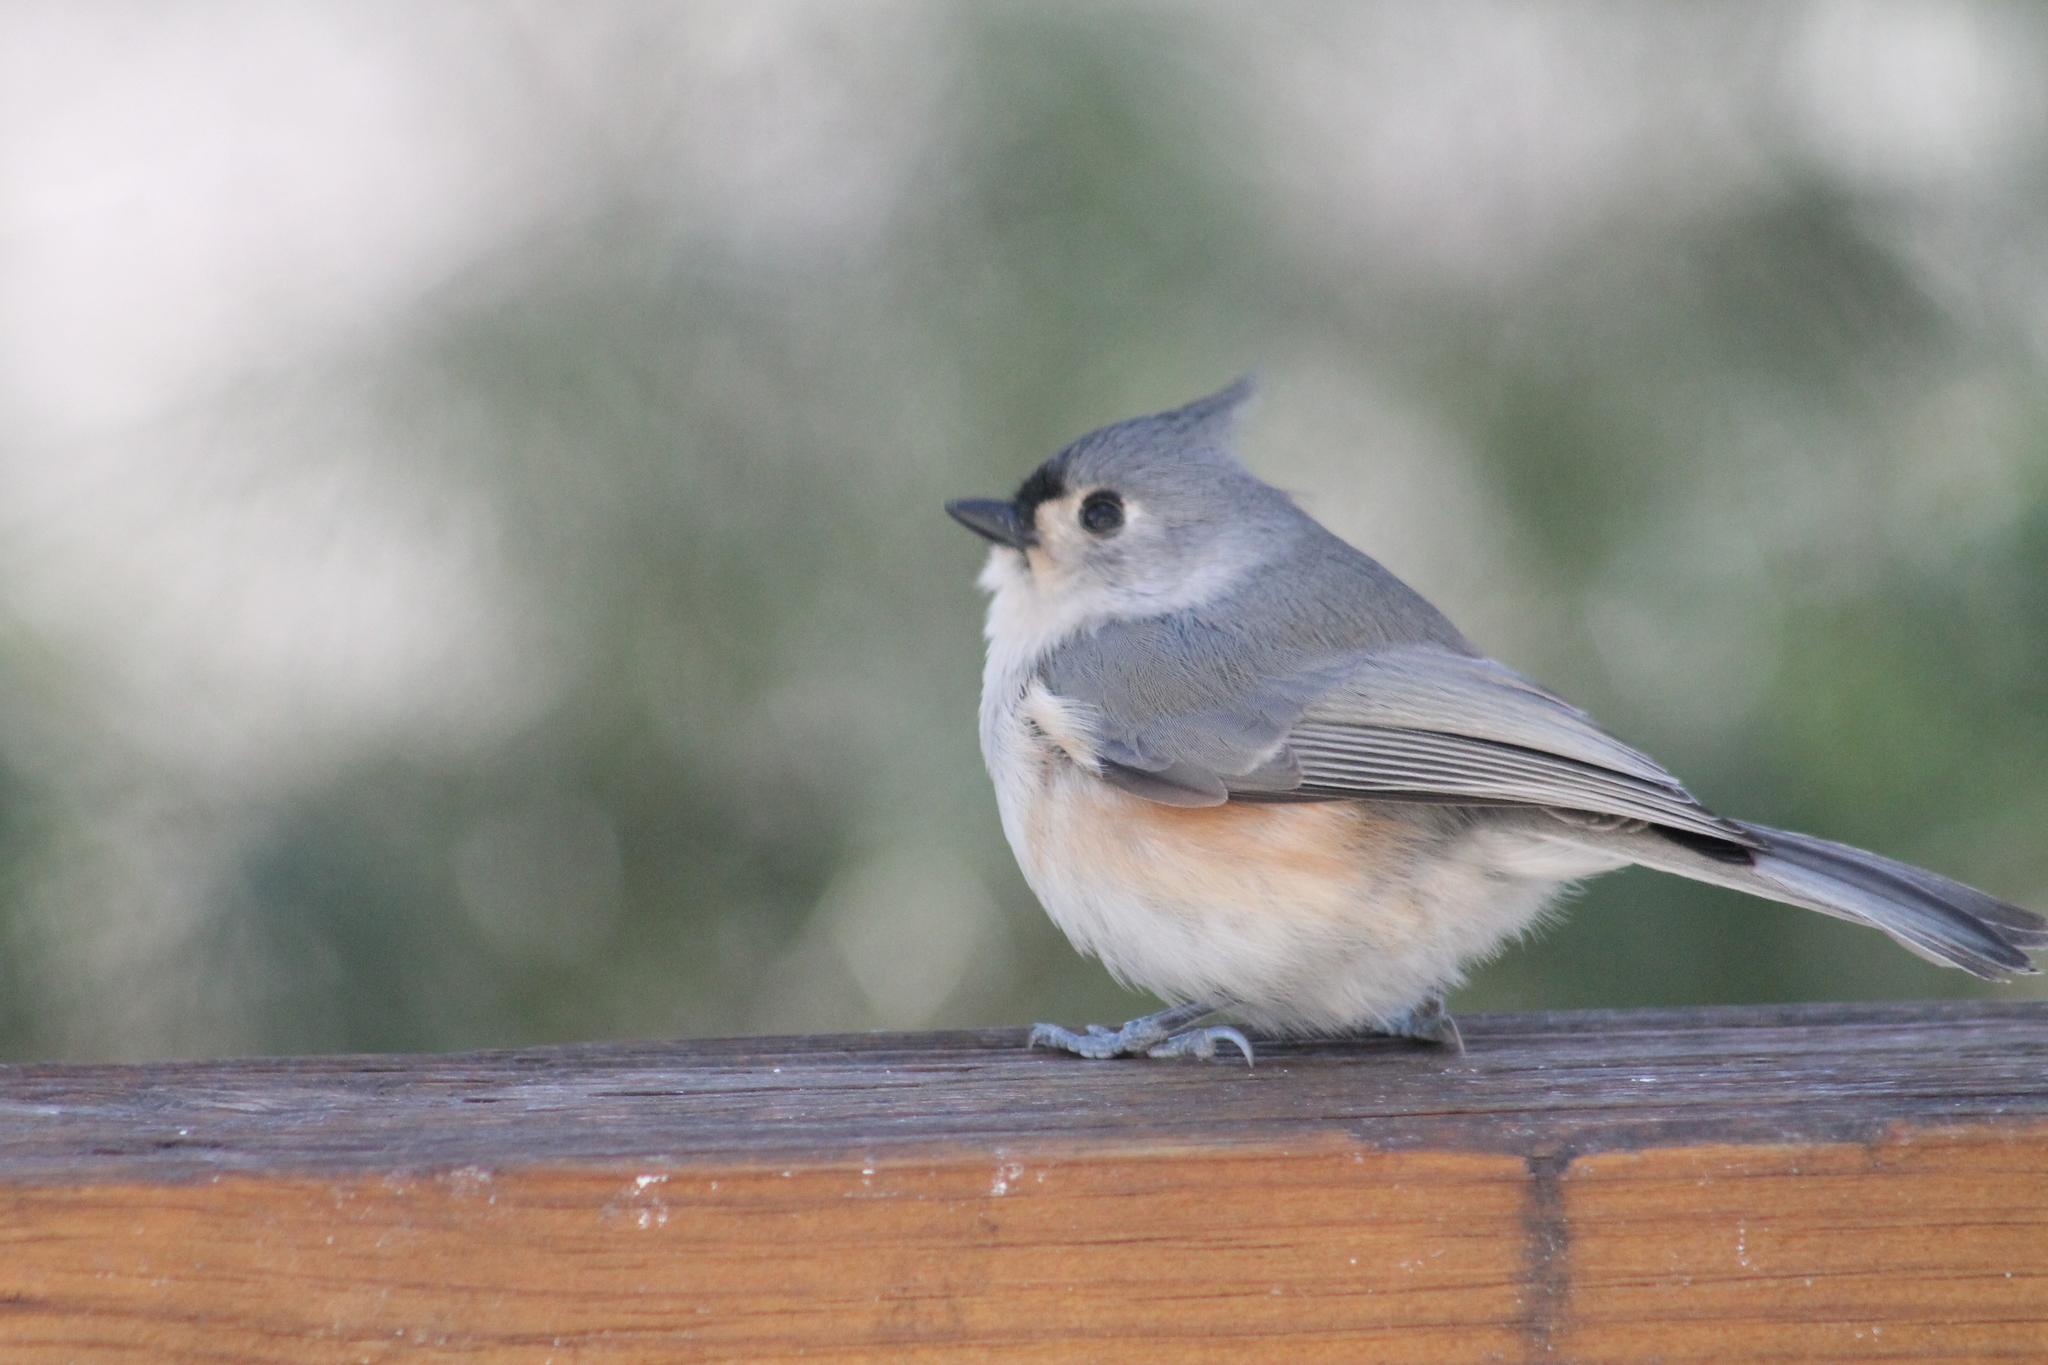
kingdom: Animalia
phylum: Chordata
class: Aves
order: Passeriformes
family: Paridae
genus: Baeolophus
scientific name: Baeolophus bicolor
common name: Tufted titmouse
